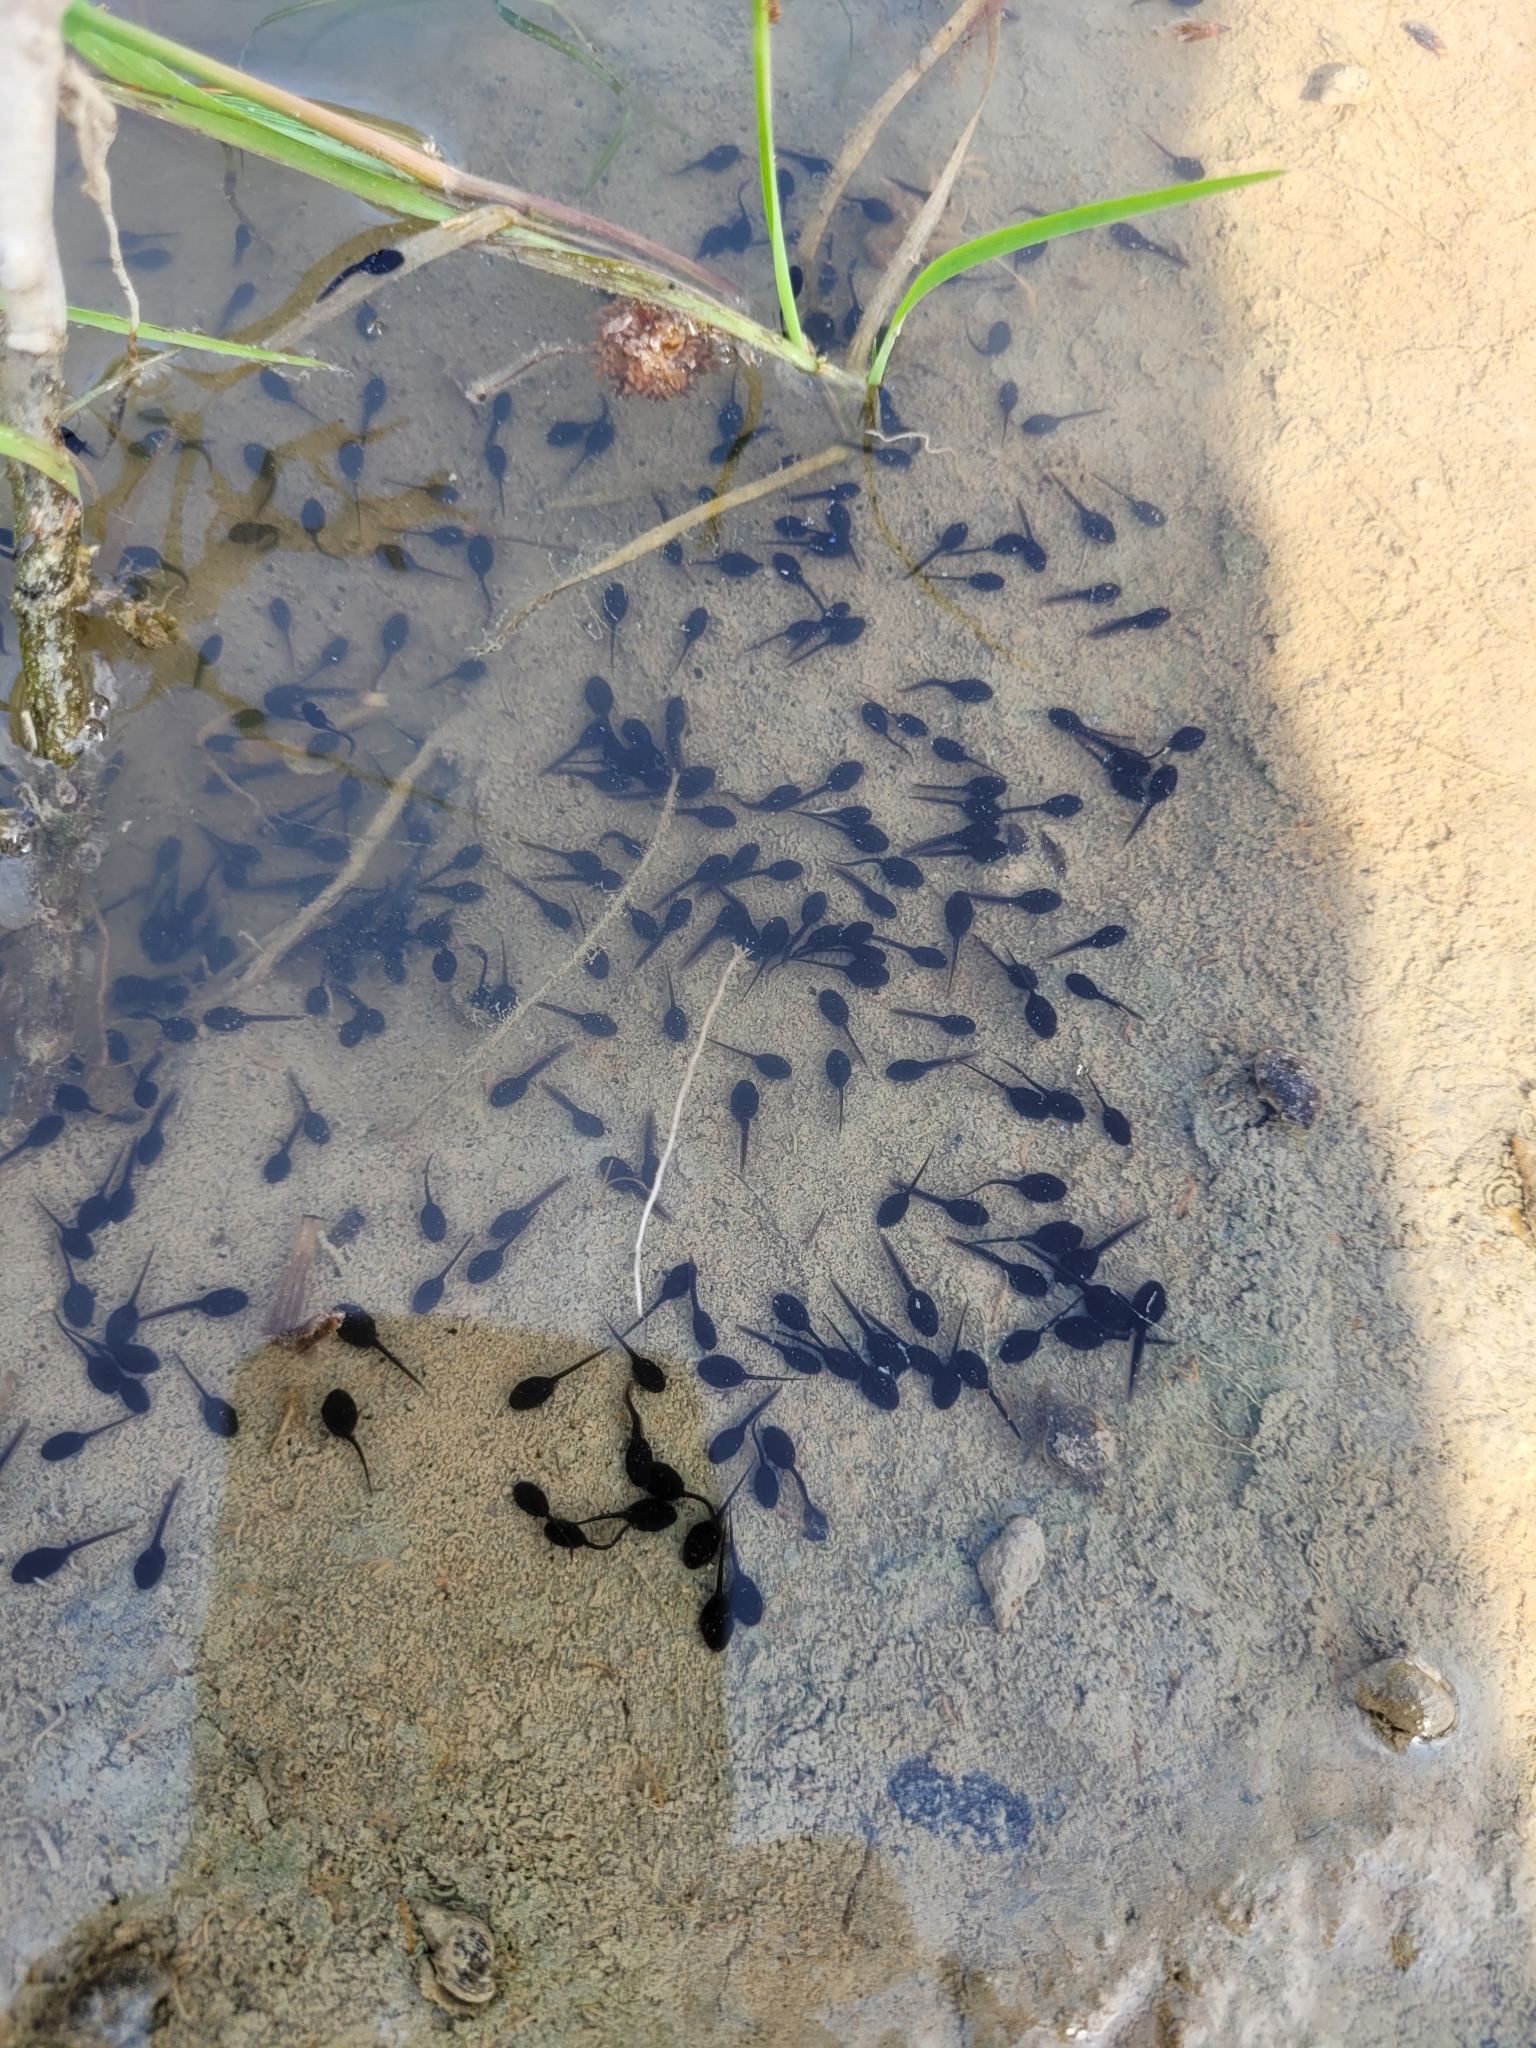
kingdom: Animalia
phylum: Chordata
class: Amphibia
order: Anura
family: Bufonidae
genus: Anaxyrus
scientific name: Anaxyrus americanus
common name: American toad
